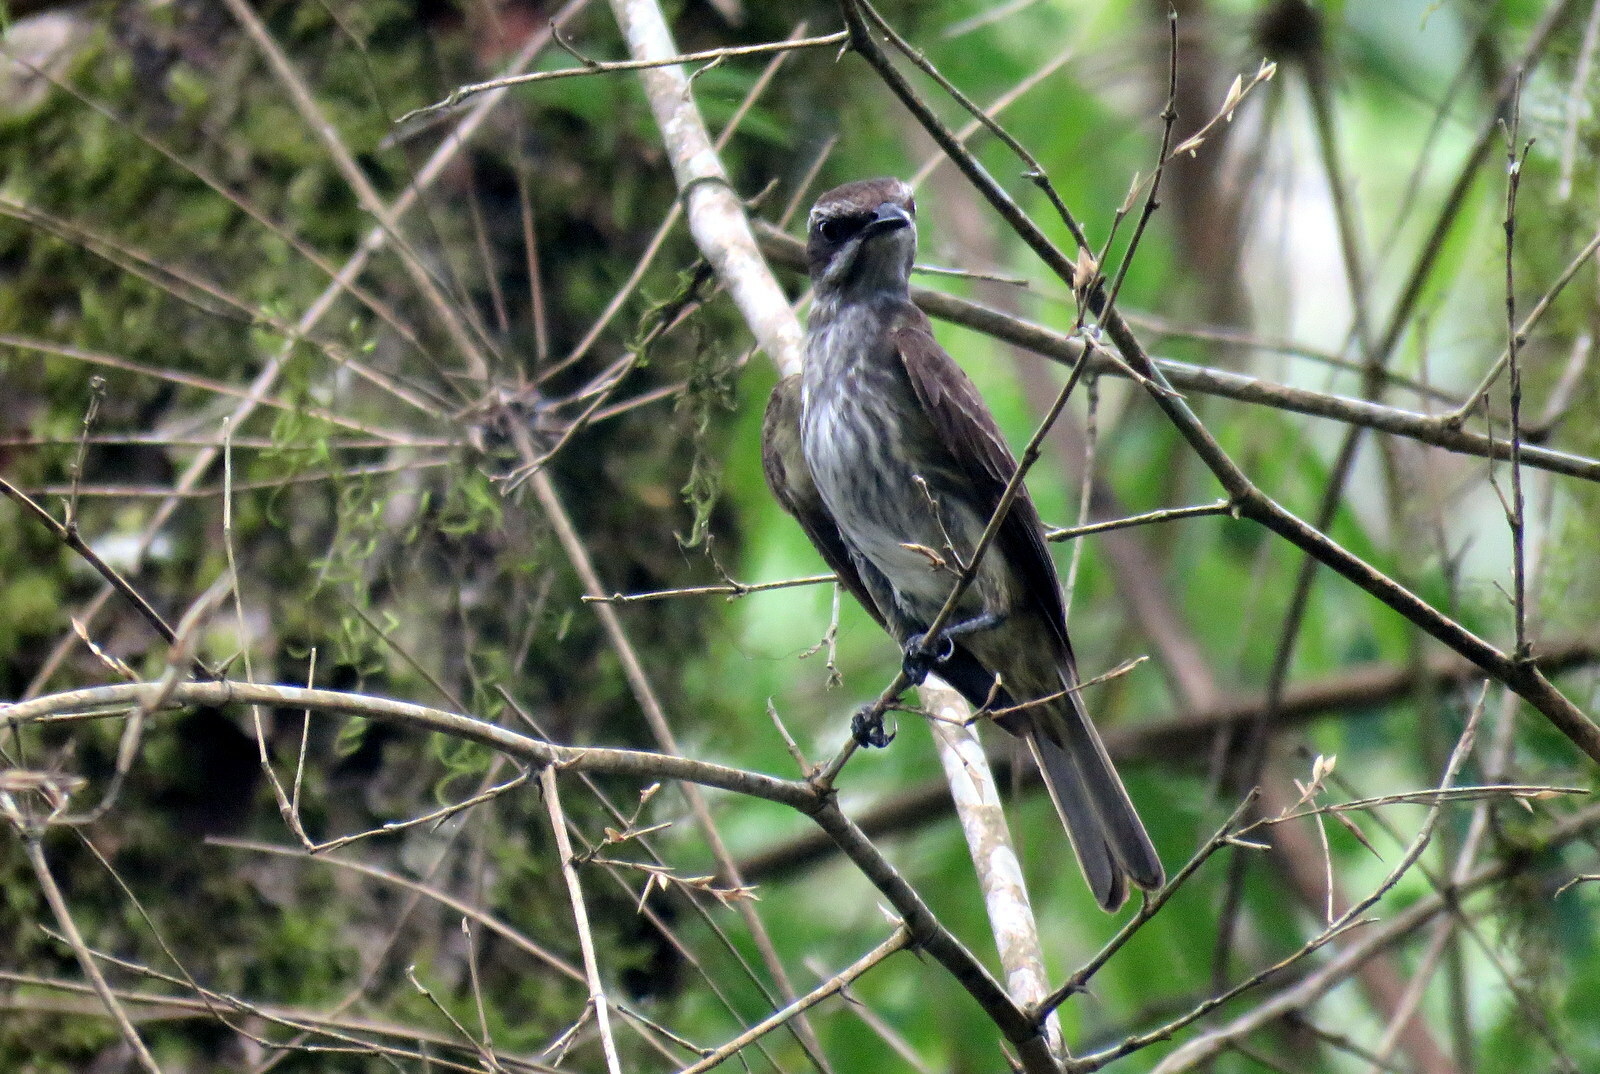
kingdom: Animalia
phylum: Chordata
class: Aves
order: Passeriformes
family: Tyrannidae
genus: Legatus
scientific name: Legatus leucophaius
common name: Piratic flycatcher
